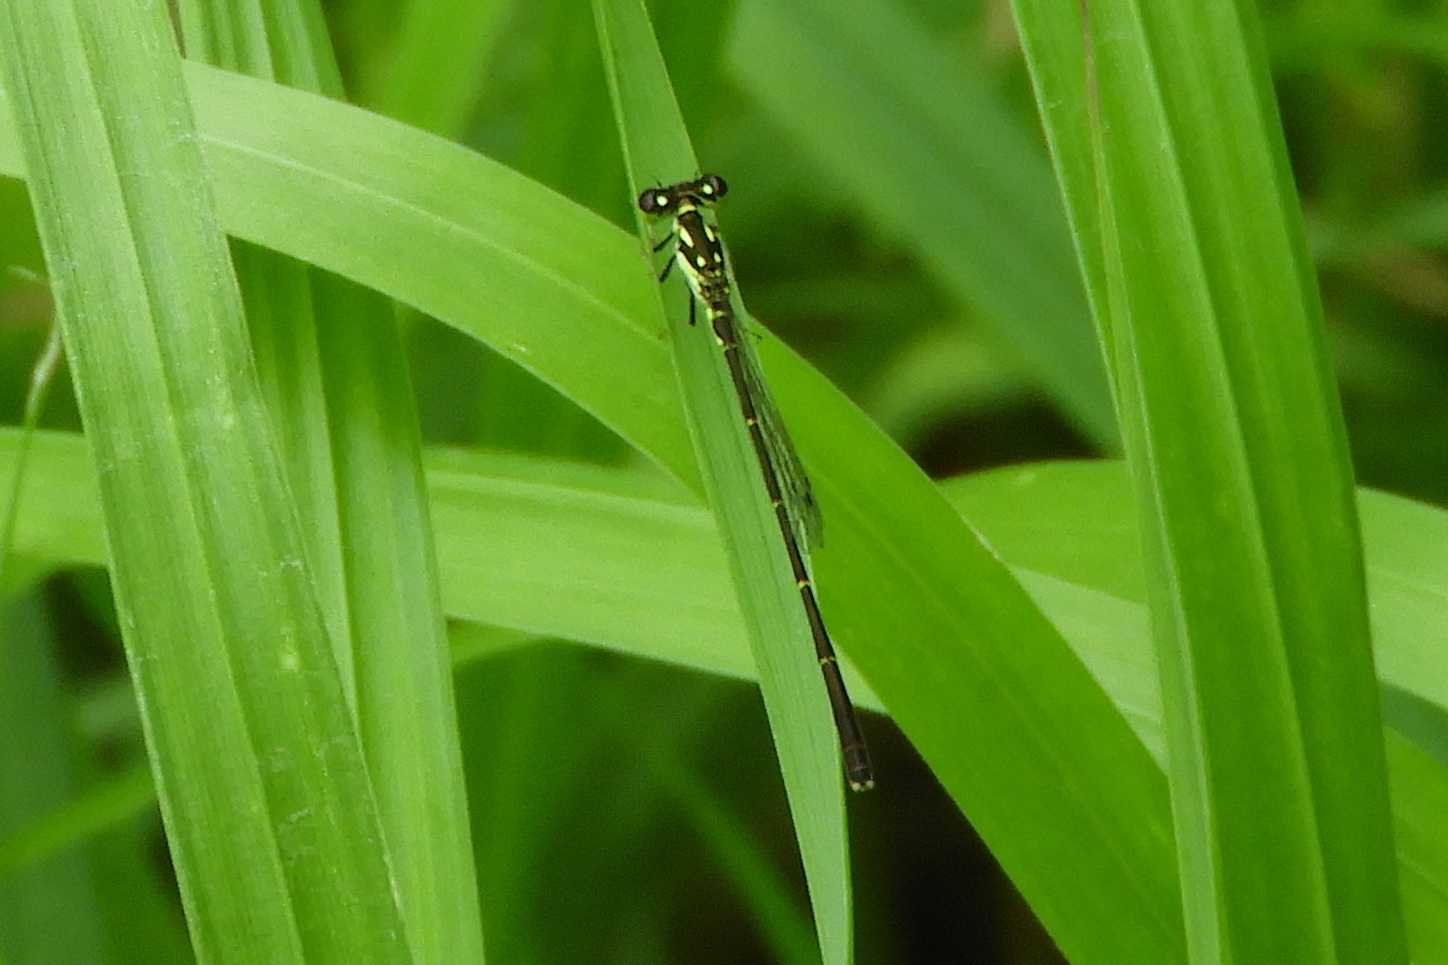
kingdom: Animalia
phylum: Arthropoda
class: Insecta
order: Odonata
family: Coenagrionidae
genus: Ischnura
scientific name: Ischnura posita
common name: Fragile forktail
